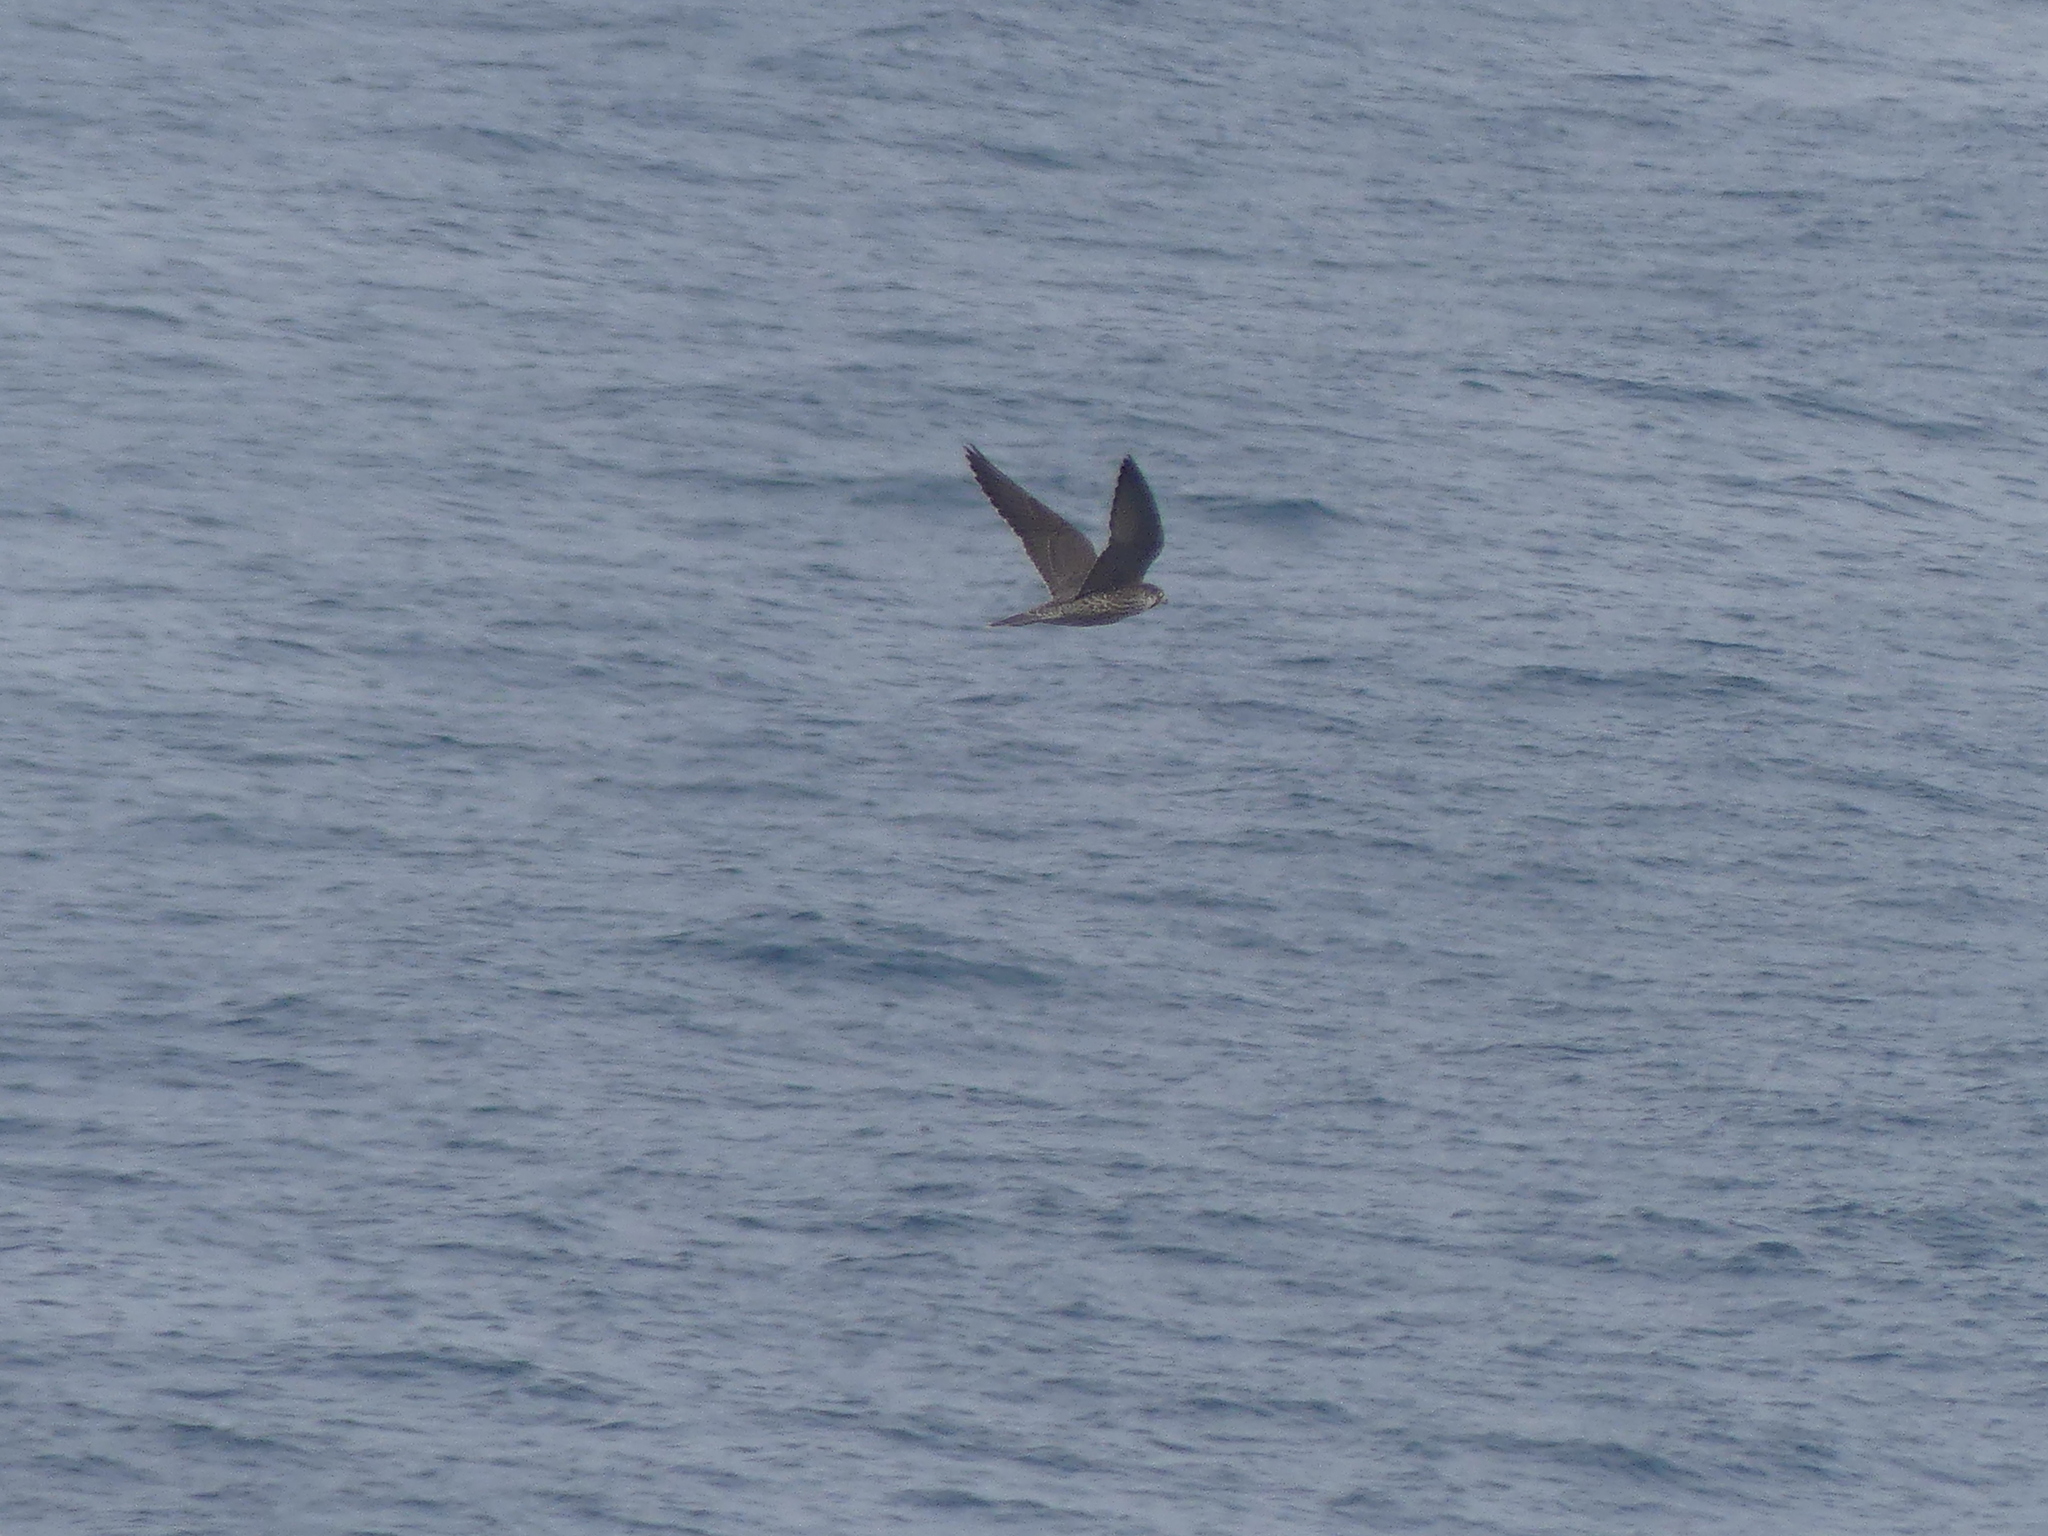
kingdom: Animalia
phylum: Chordata
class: Aves
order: Falconiformes
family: Falconidae
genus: Falco
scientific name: Falco peregrinus
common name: Peregrine falcon
